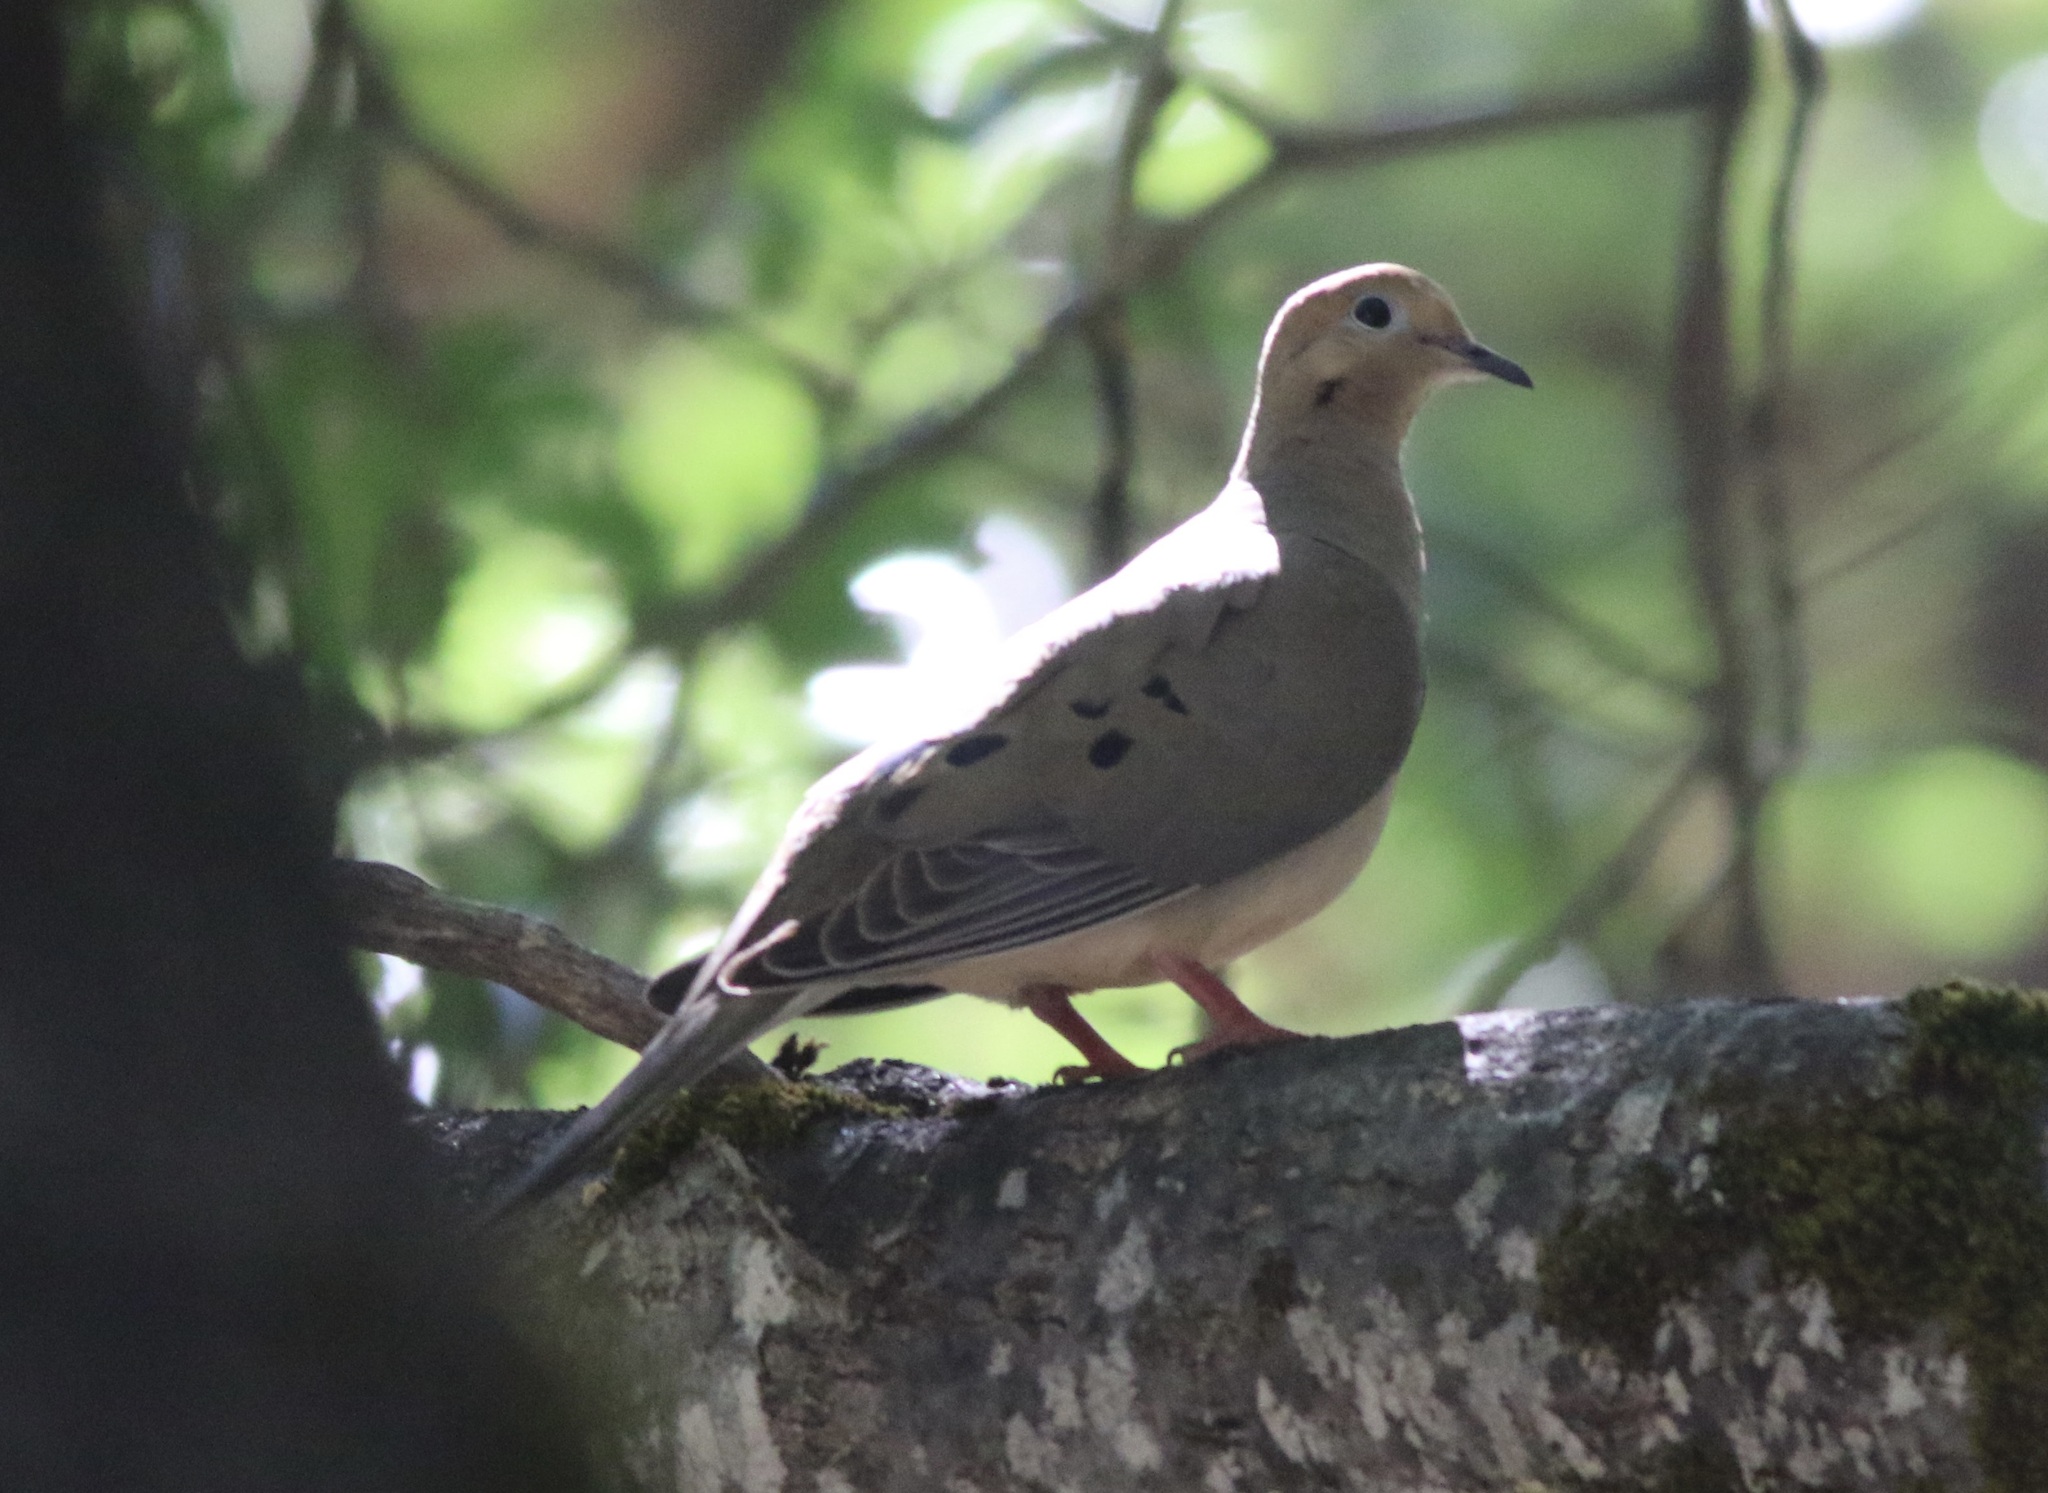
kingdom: Animalia
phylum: Chordata
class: Aves
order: Columbiformes
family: Columbidae
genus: Zenaida
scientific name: Zenaida macroura
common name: Mourning dove
